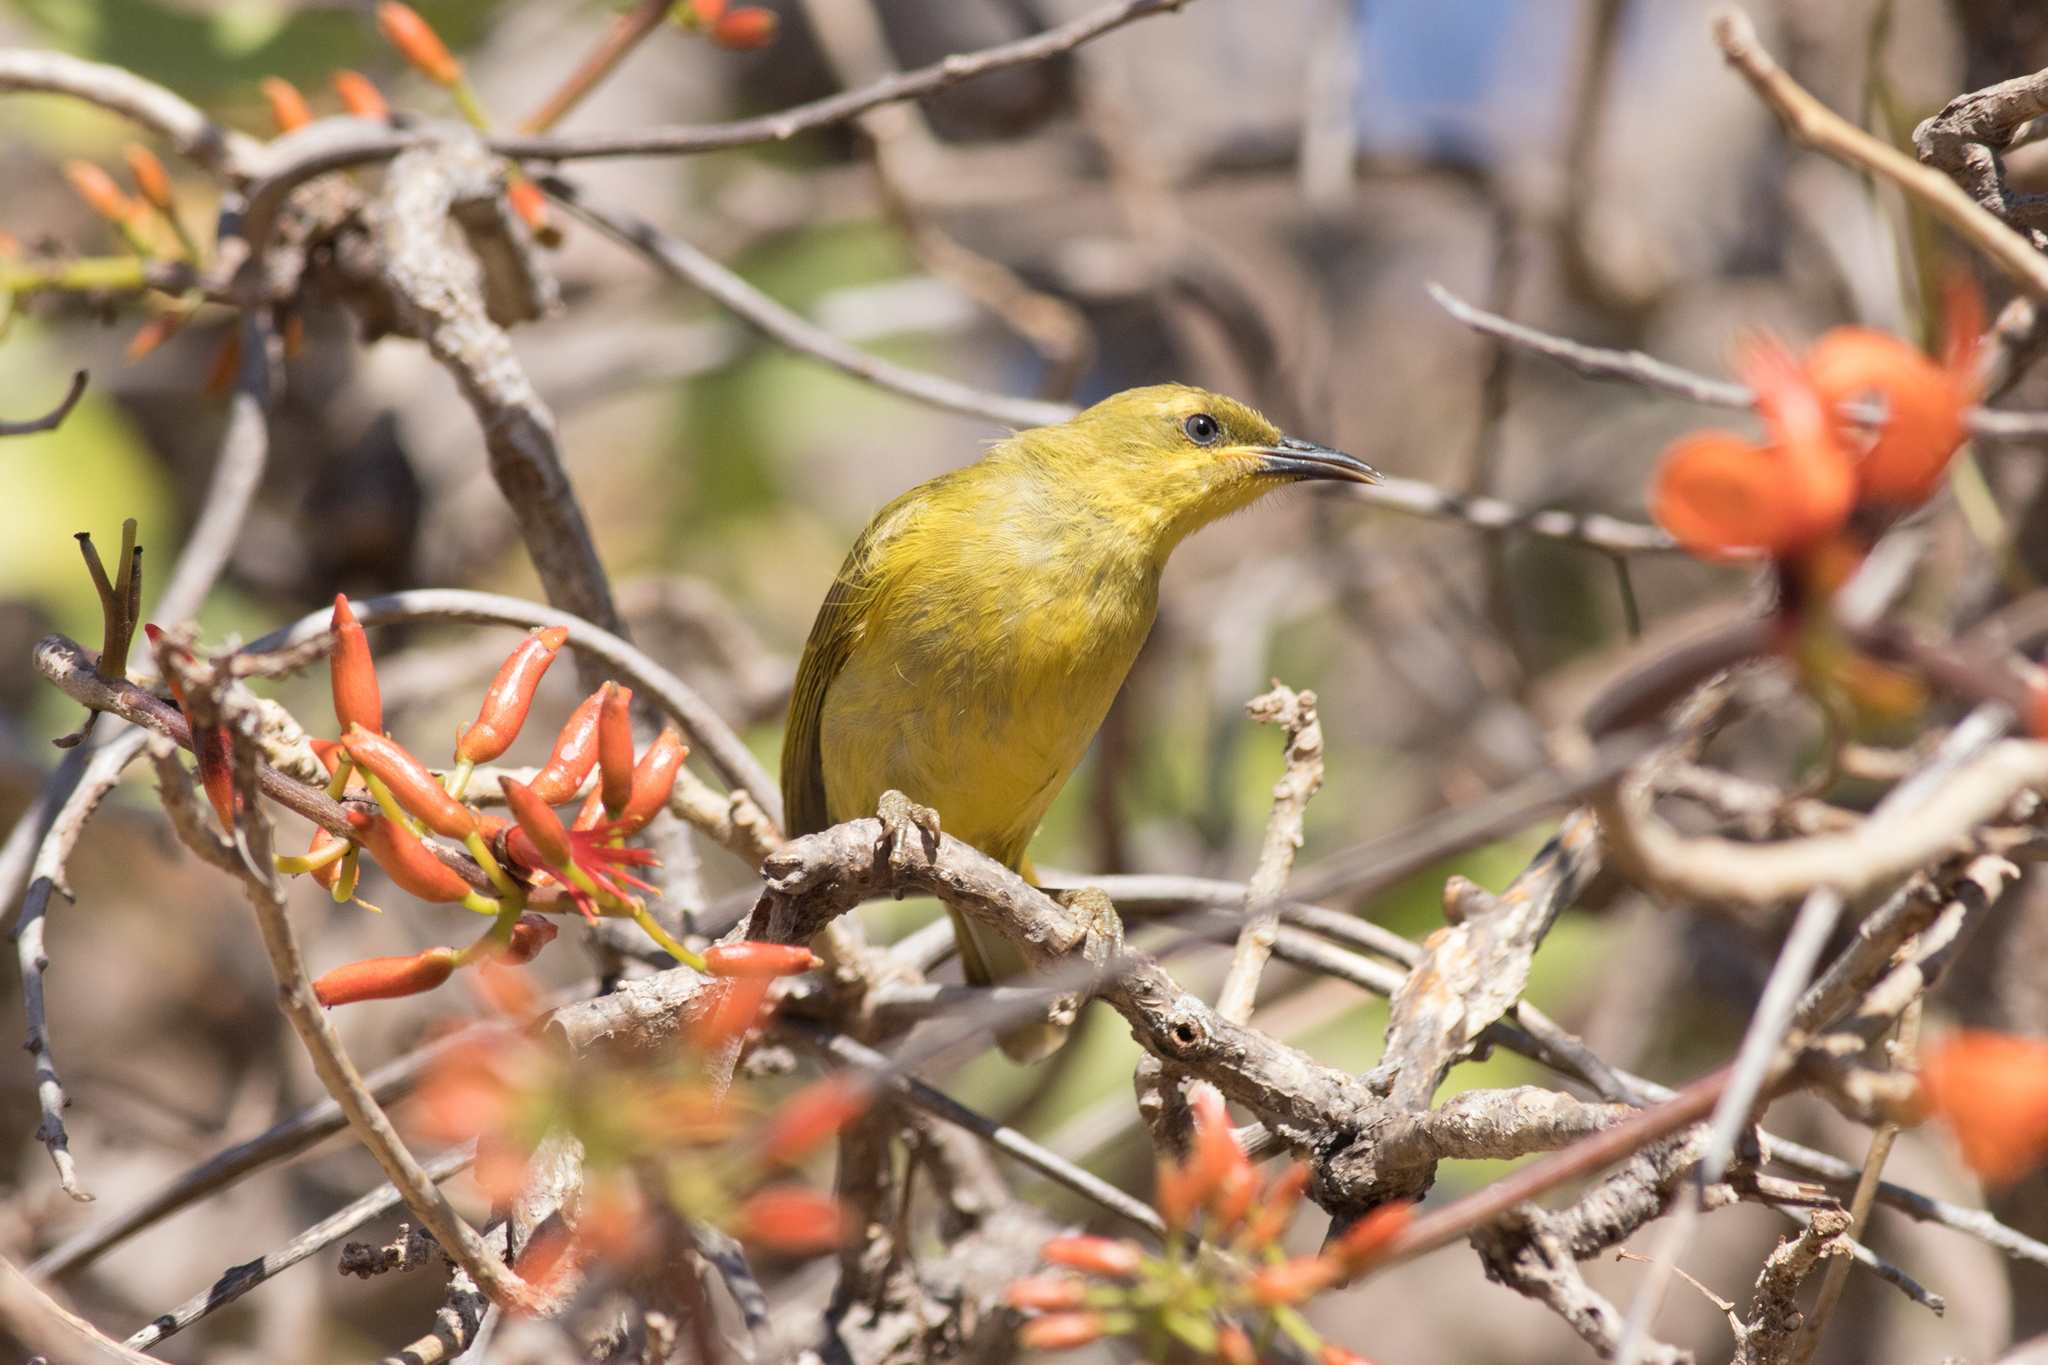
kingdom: Animalia
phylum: Chordata
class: Aves
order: Passeriformes
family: Meliphagidae
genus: Stomiopera
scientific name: Stomiopera flava
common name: Yellow honeyeater
